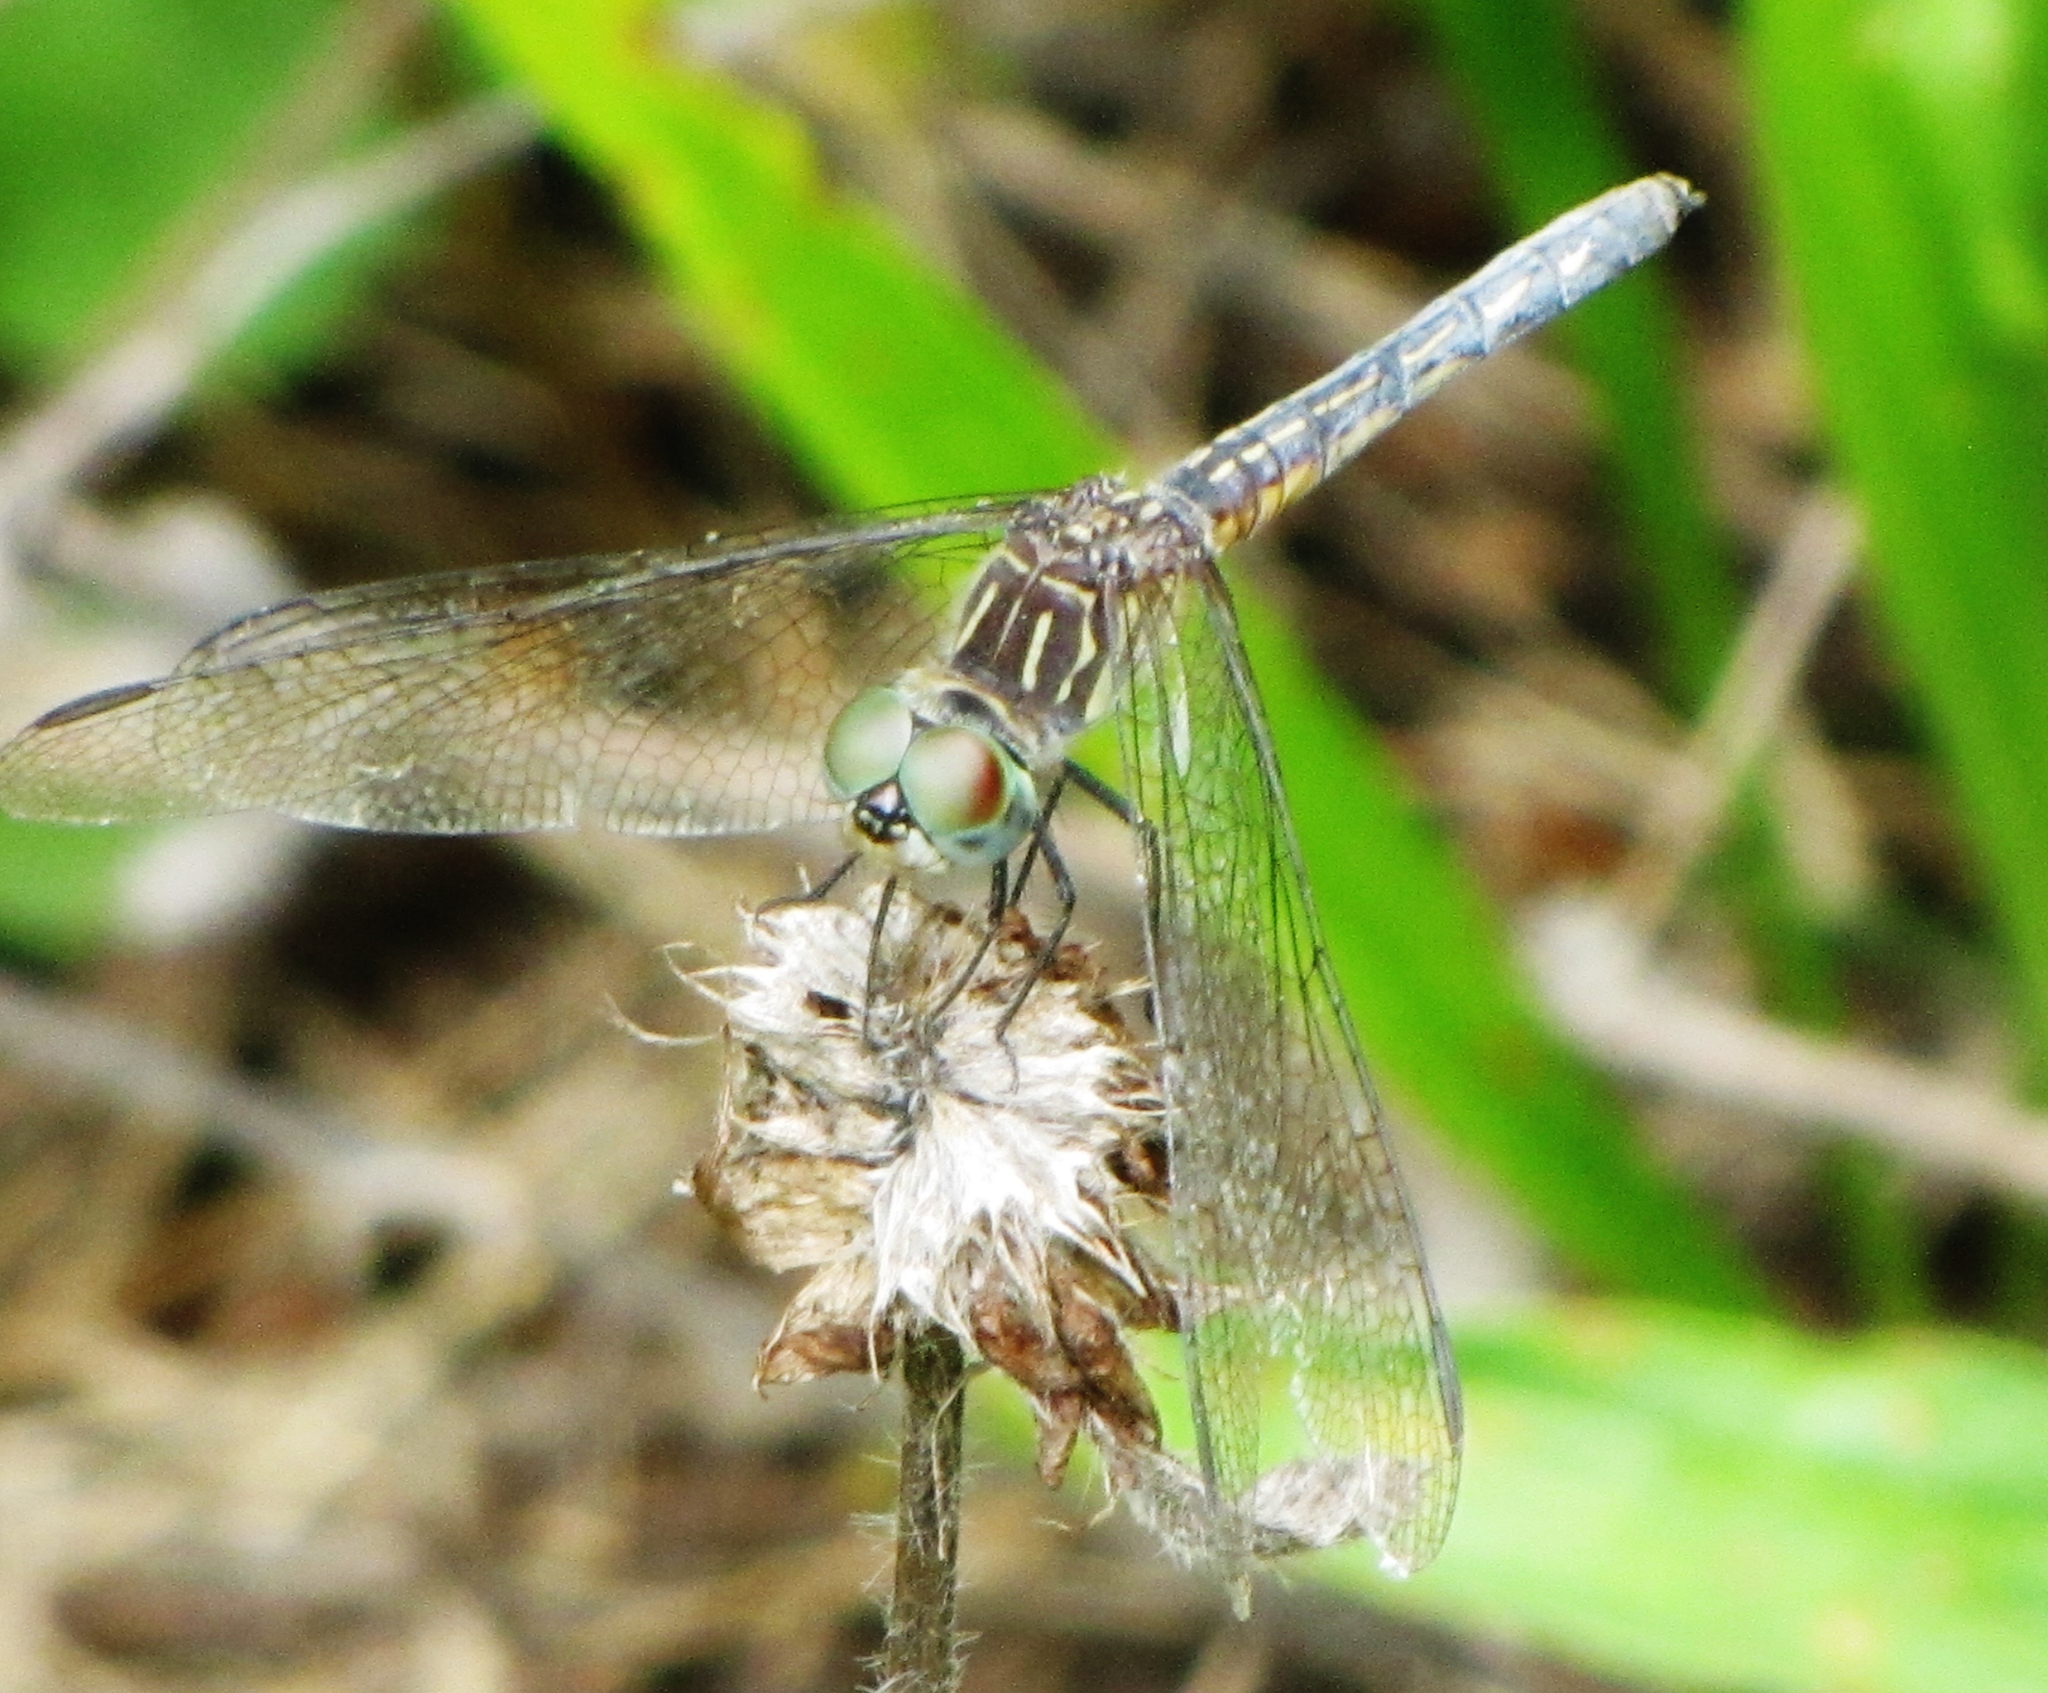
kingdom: Animalia
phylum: Arthropoda
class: Insecta
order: Odonata
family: Libellulidae
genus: Pachydiplax
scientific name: Pachydiplax longipennis
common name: Blue dasher
